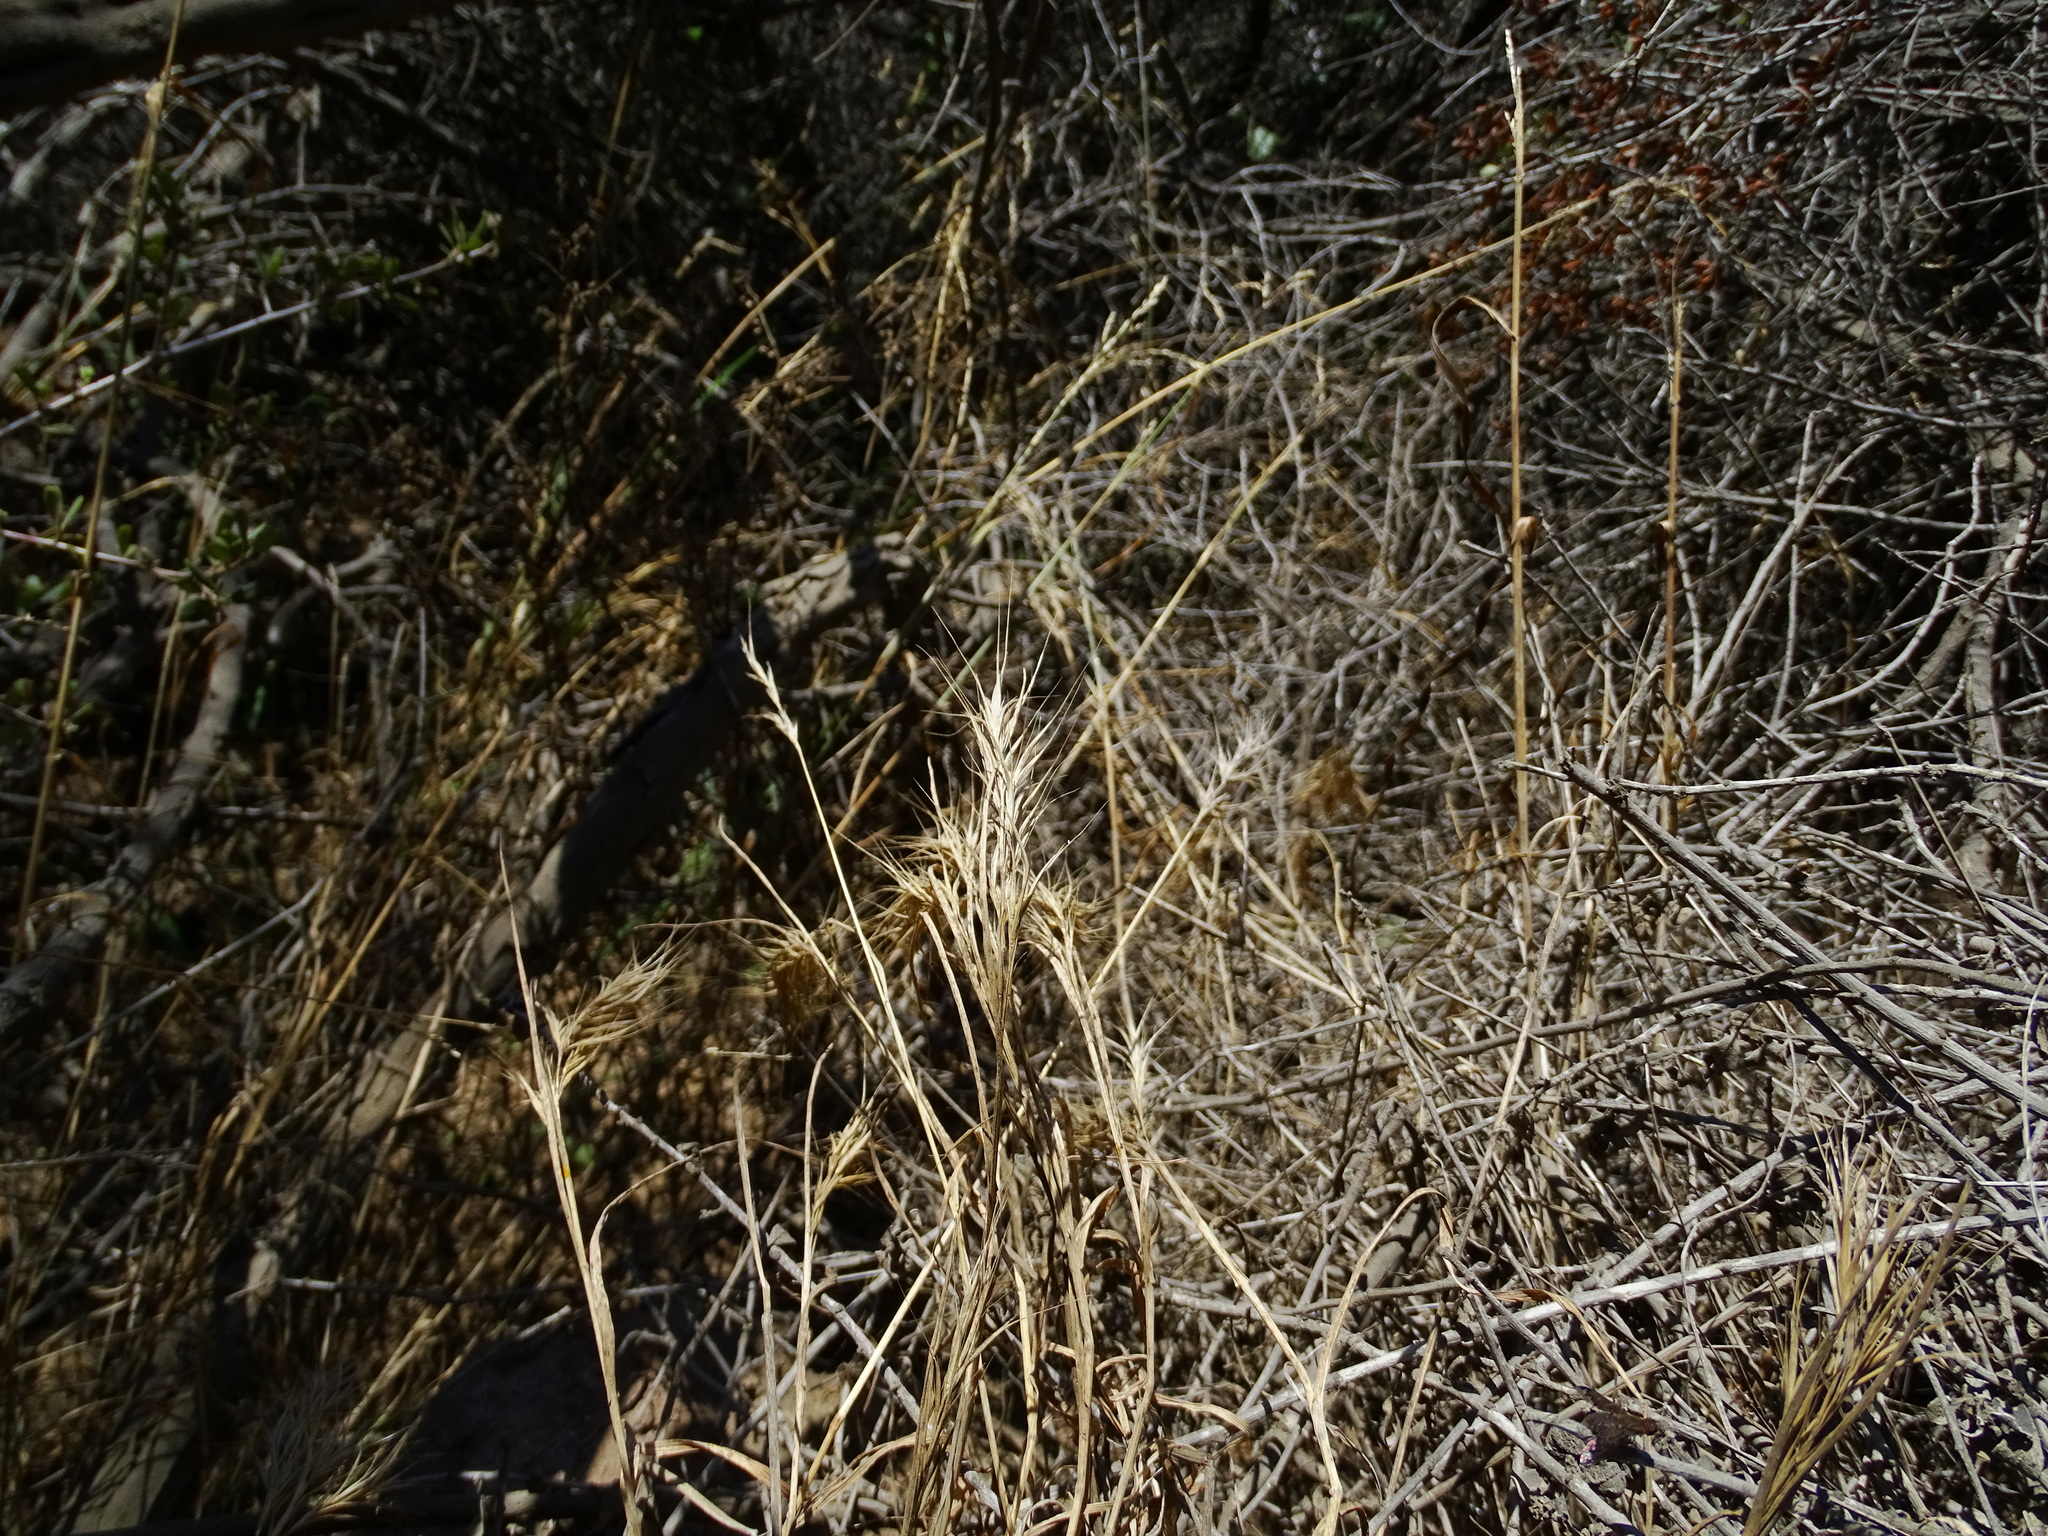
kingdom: Plantae
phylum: Tracheophyta
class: Liliopsida
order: Poales
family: Poaceae
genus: Bromus
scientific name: Bromus madritensis
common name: Compact brome
